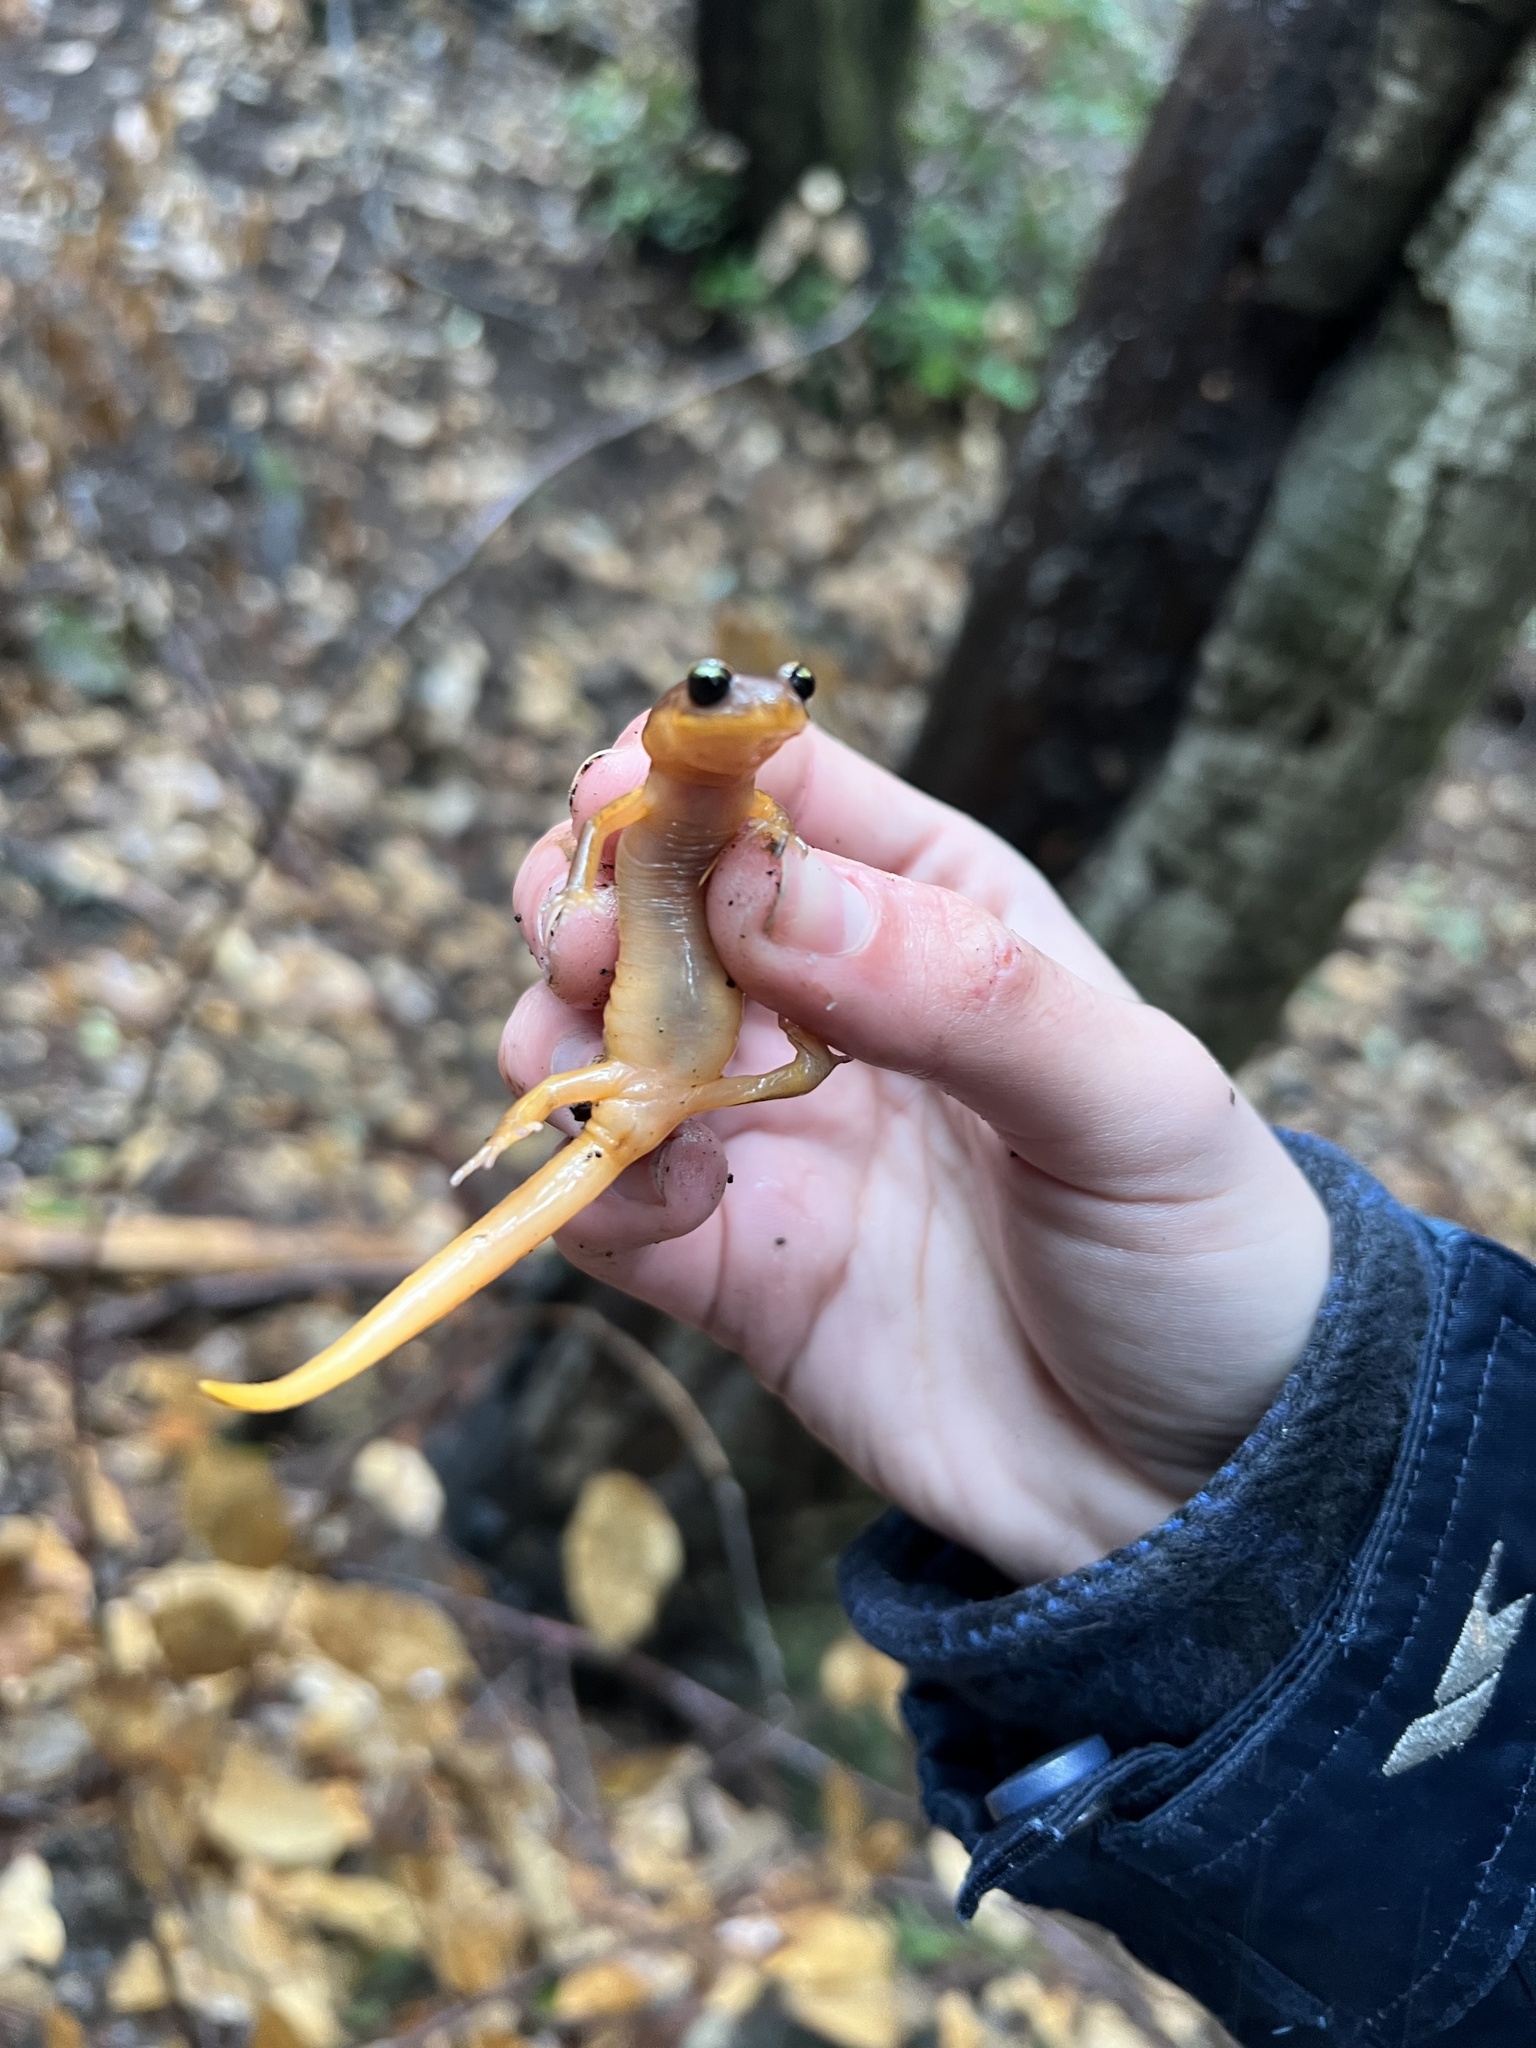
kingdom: Animalia
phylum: Chordata
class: Amphibia
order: Caudata
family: Plethodontidae
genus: Ensatina
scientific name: Ensatina eschscholtzii
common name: Ensatina
